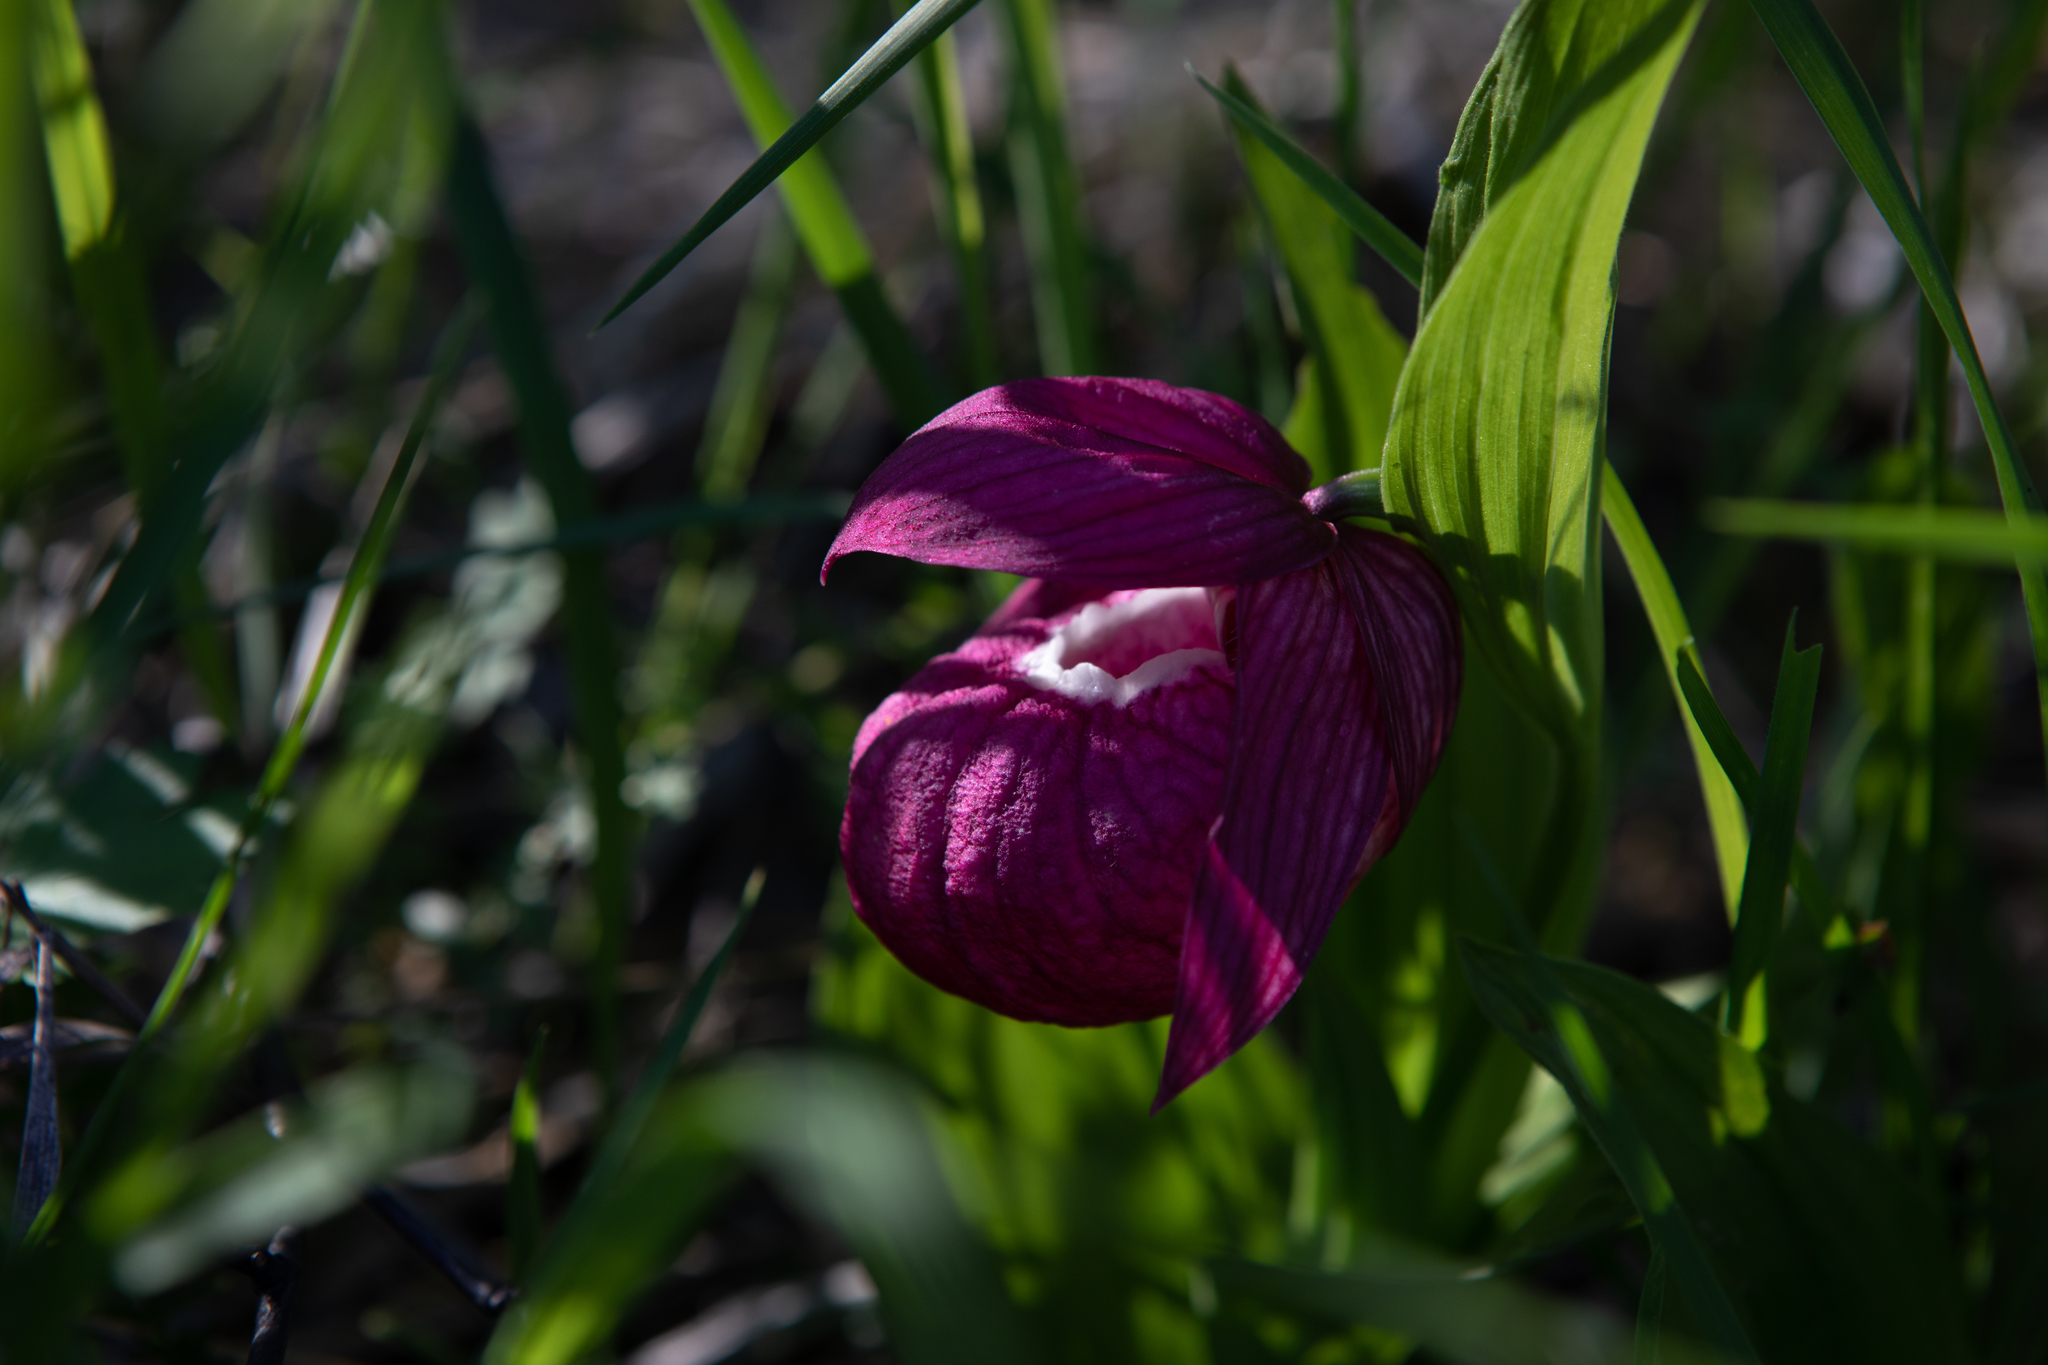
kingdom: Plantae
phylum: Tracheophyta
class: Liliopsida
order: Asparagales
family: Orchidaceae
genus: Cypripedium
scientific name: Cypripedium macranthos
